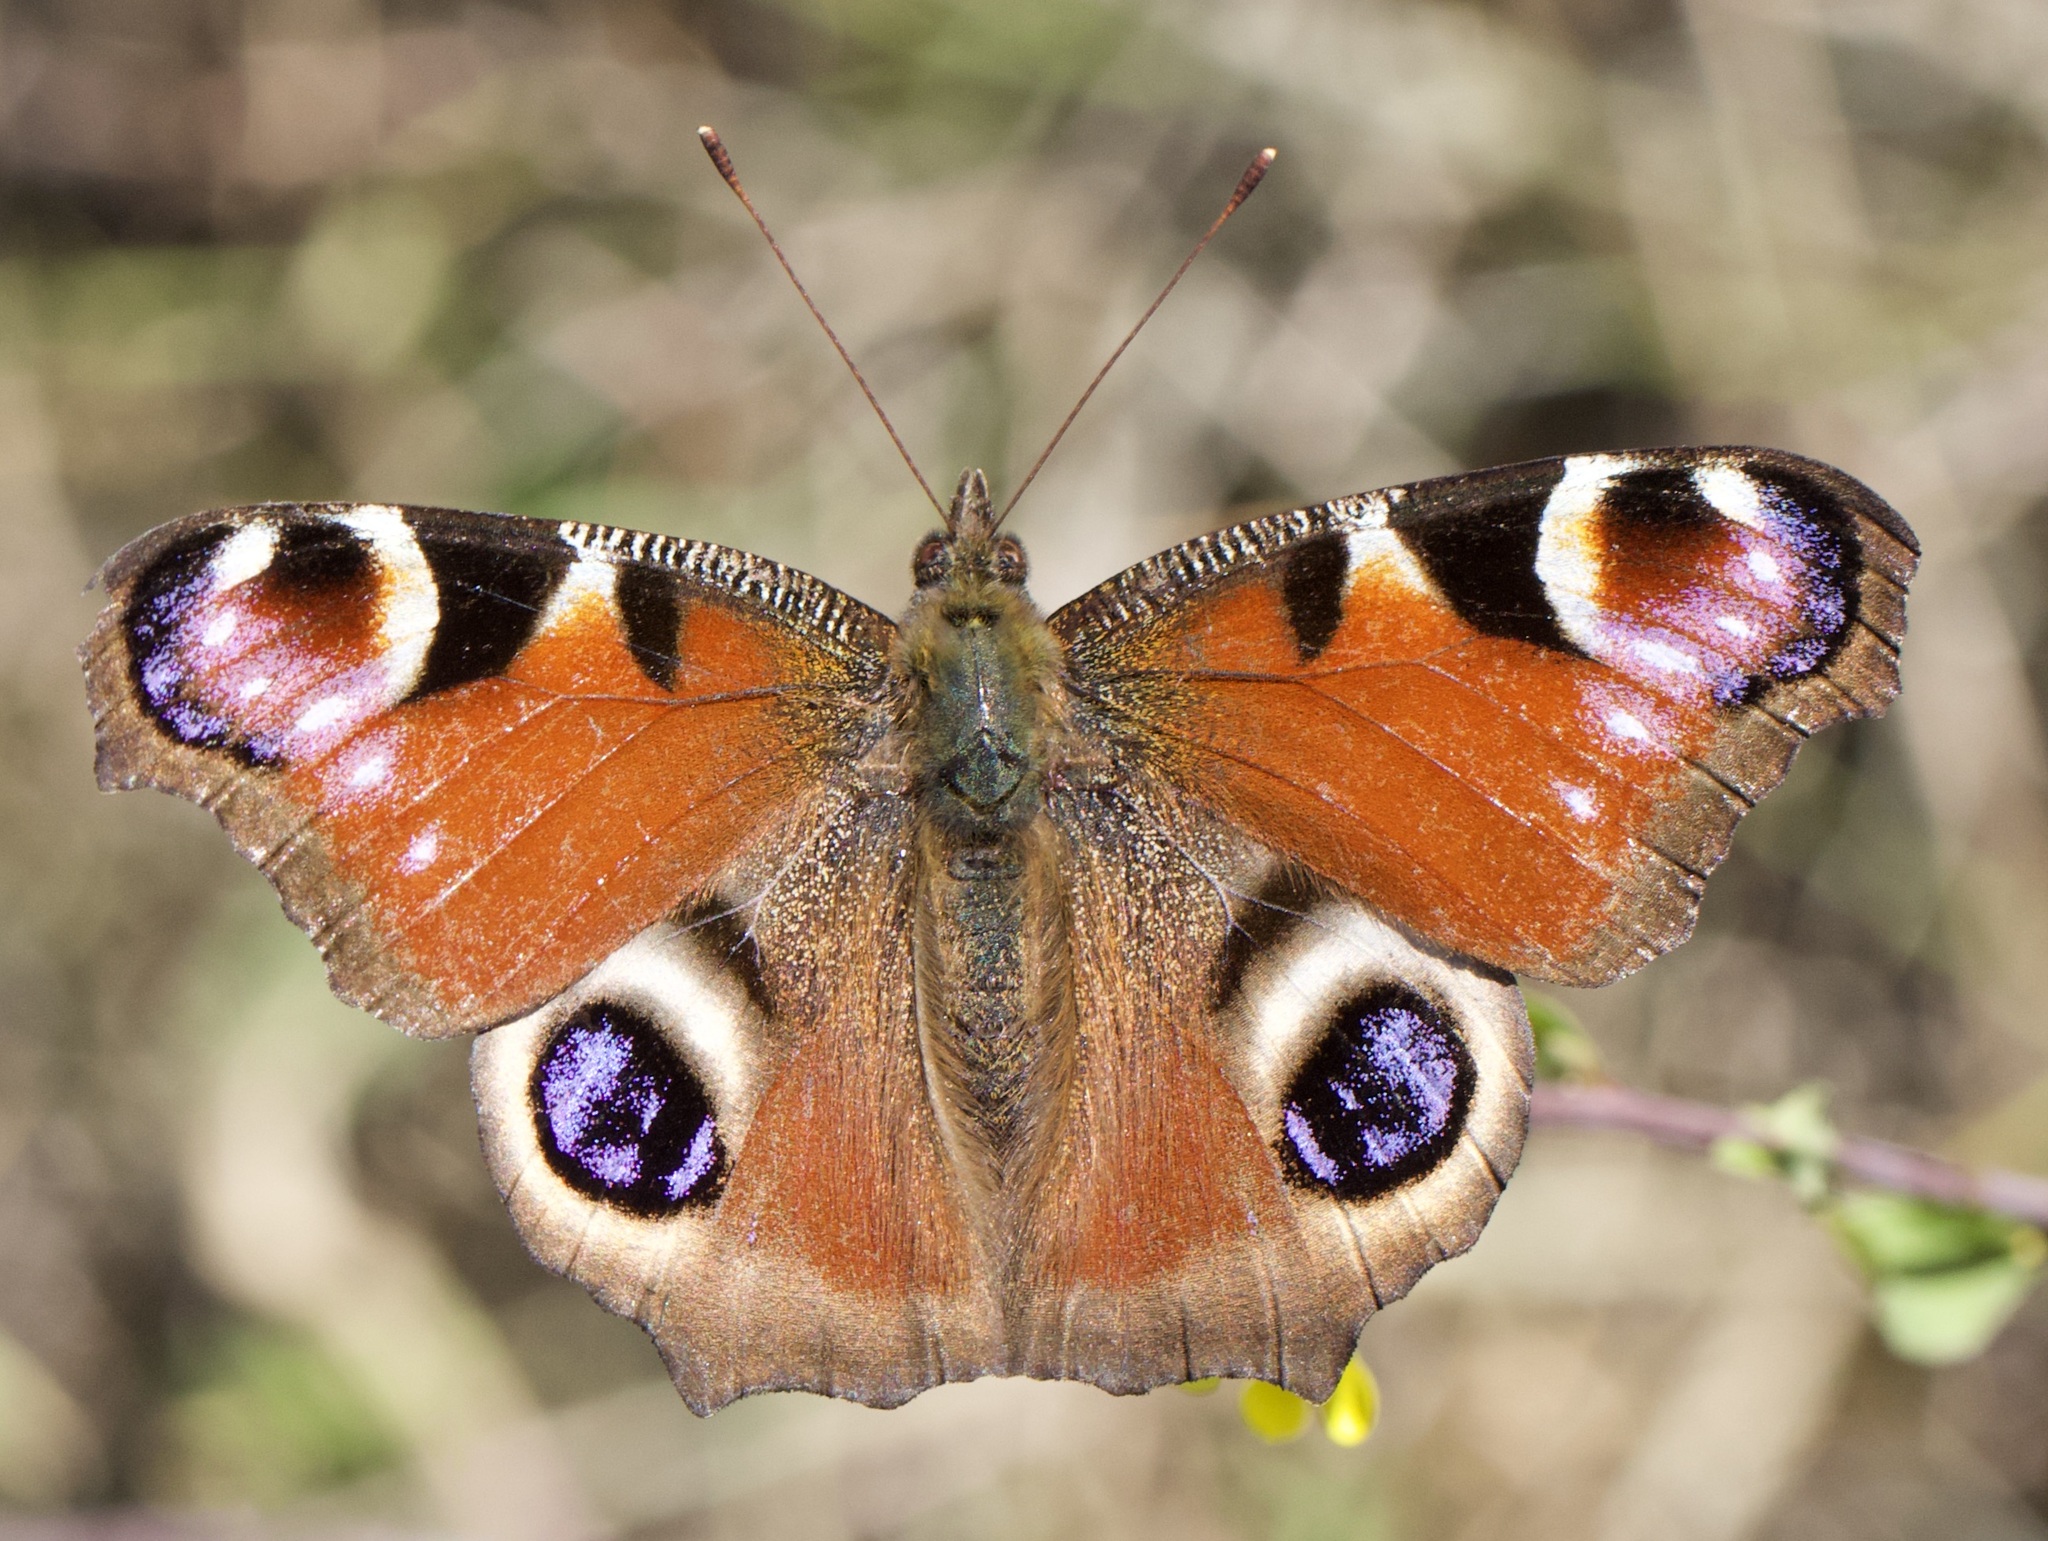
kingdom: Animalia
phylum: Arthropoda
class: Insecta
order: Lepidoptera
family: Nymphalidae
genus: Aglais
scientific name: Aglais io
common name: Peacock
